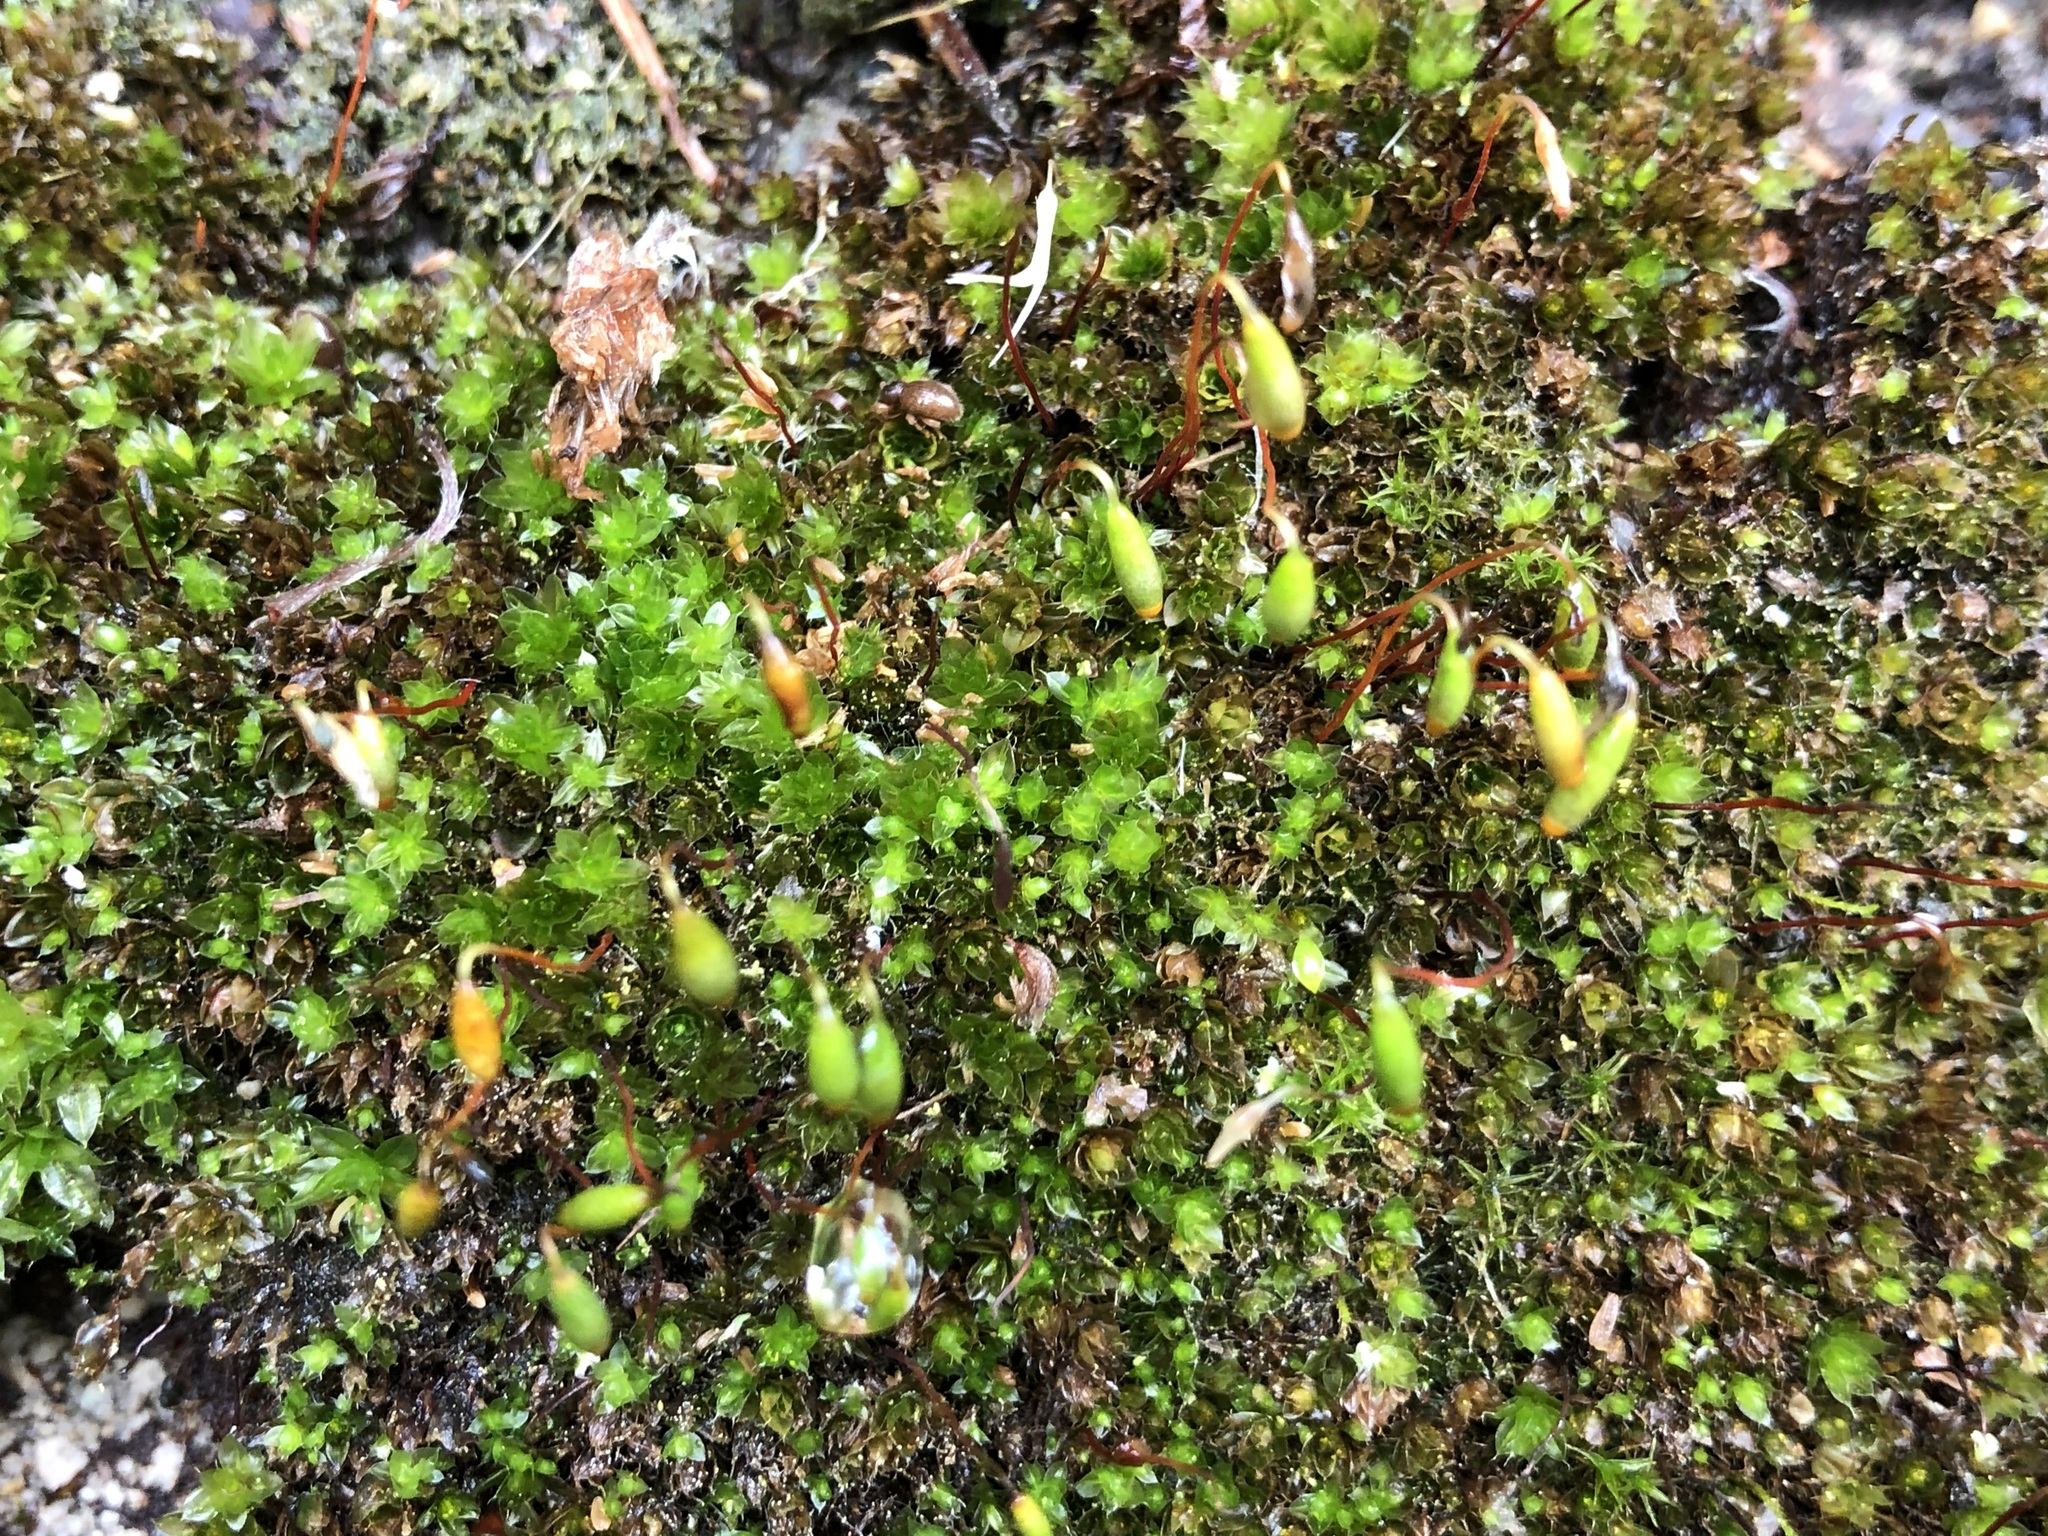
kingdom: Plantae
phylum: Bryophyta
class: Bryopsida
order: Bryales
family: Bryaceae
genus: Rosulabryum
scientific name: Rosulabryum capillare
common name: Capillary thread-moss
